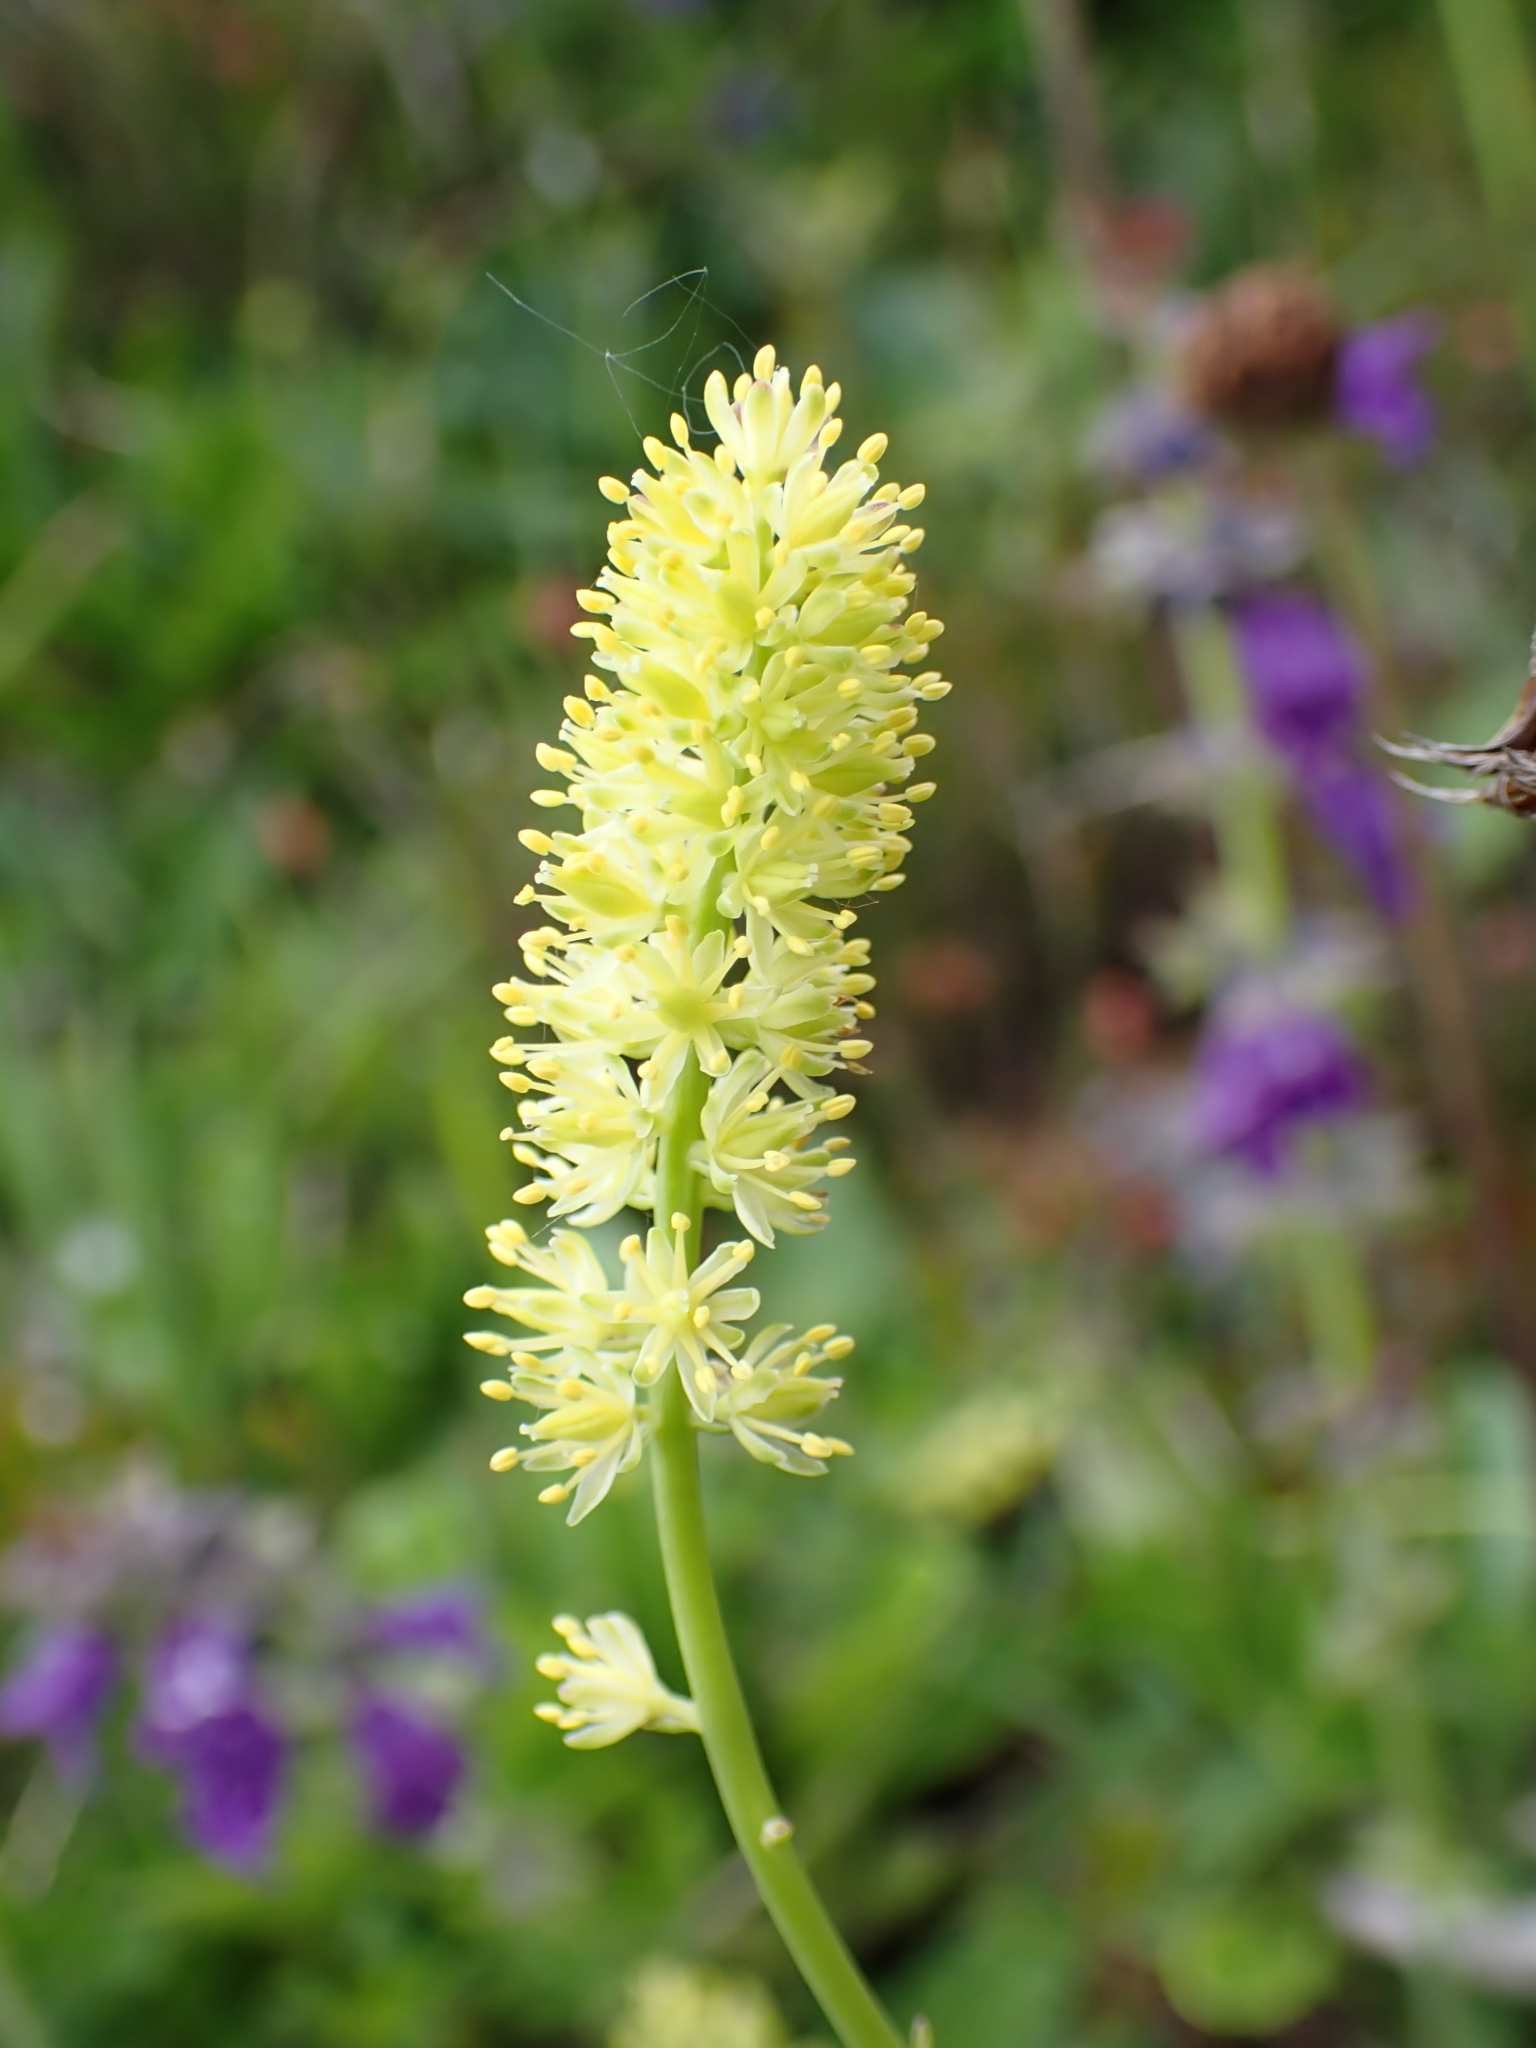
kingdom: Plantae
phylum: Tracheophyta
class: Liliopsida
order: Alismatales
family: Tofieldiaceae
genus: Tofieldia
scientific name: Tofieldia calyculata
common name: German-asphodel
